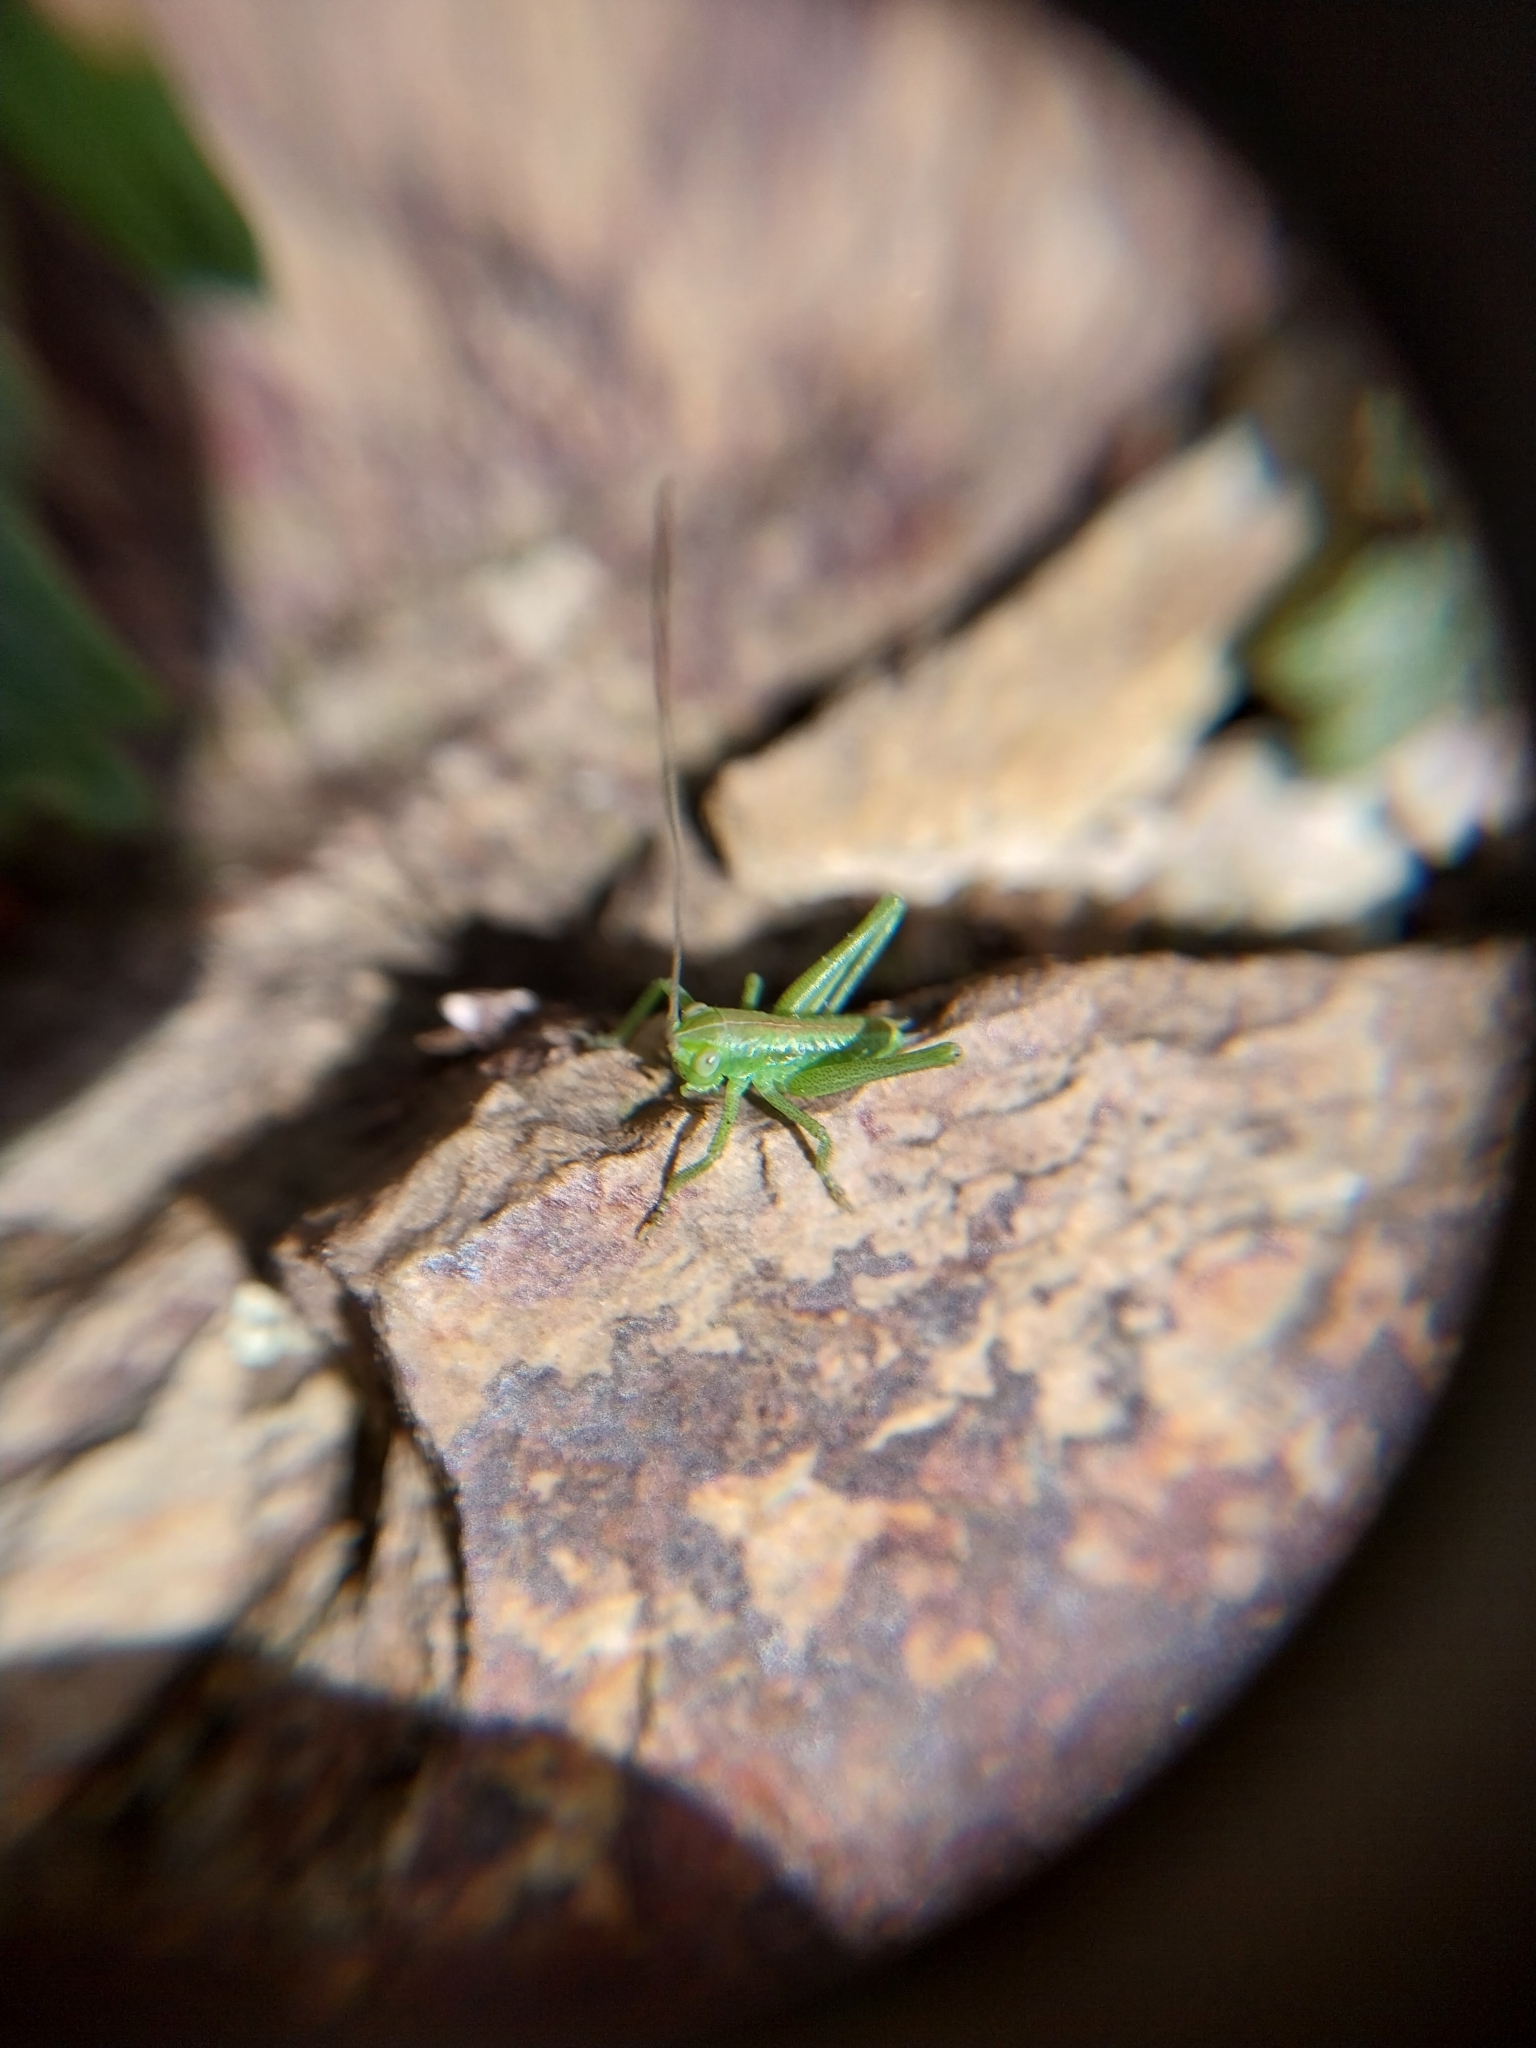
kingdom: Animalia
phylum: Arthropoda
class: Insecta
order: Orthoptera
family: Tettigoniidae
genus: Tettigonia
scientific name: Tettigonia viridissima
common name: Great green bush-cricket
